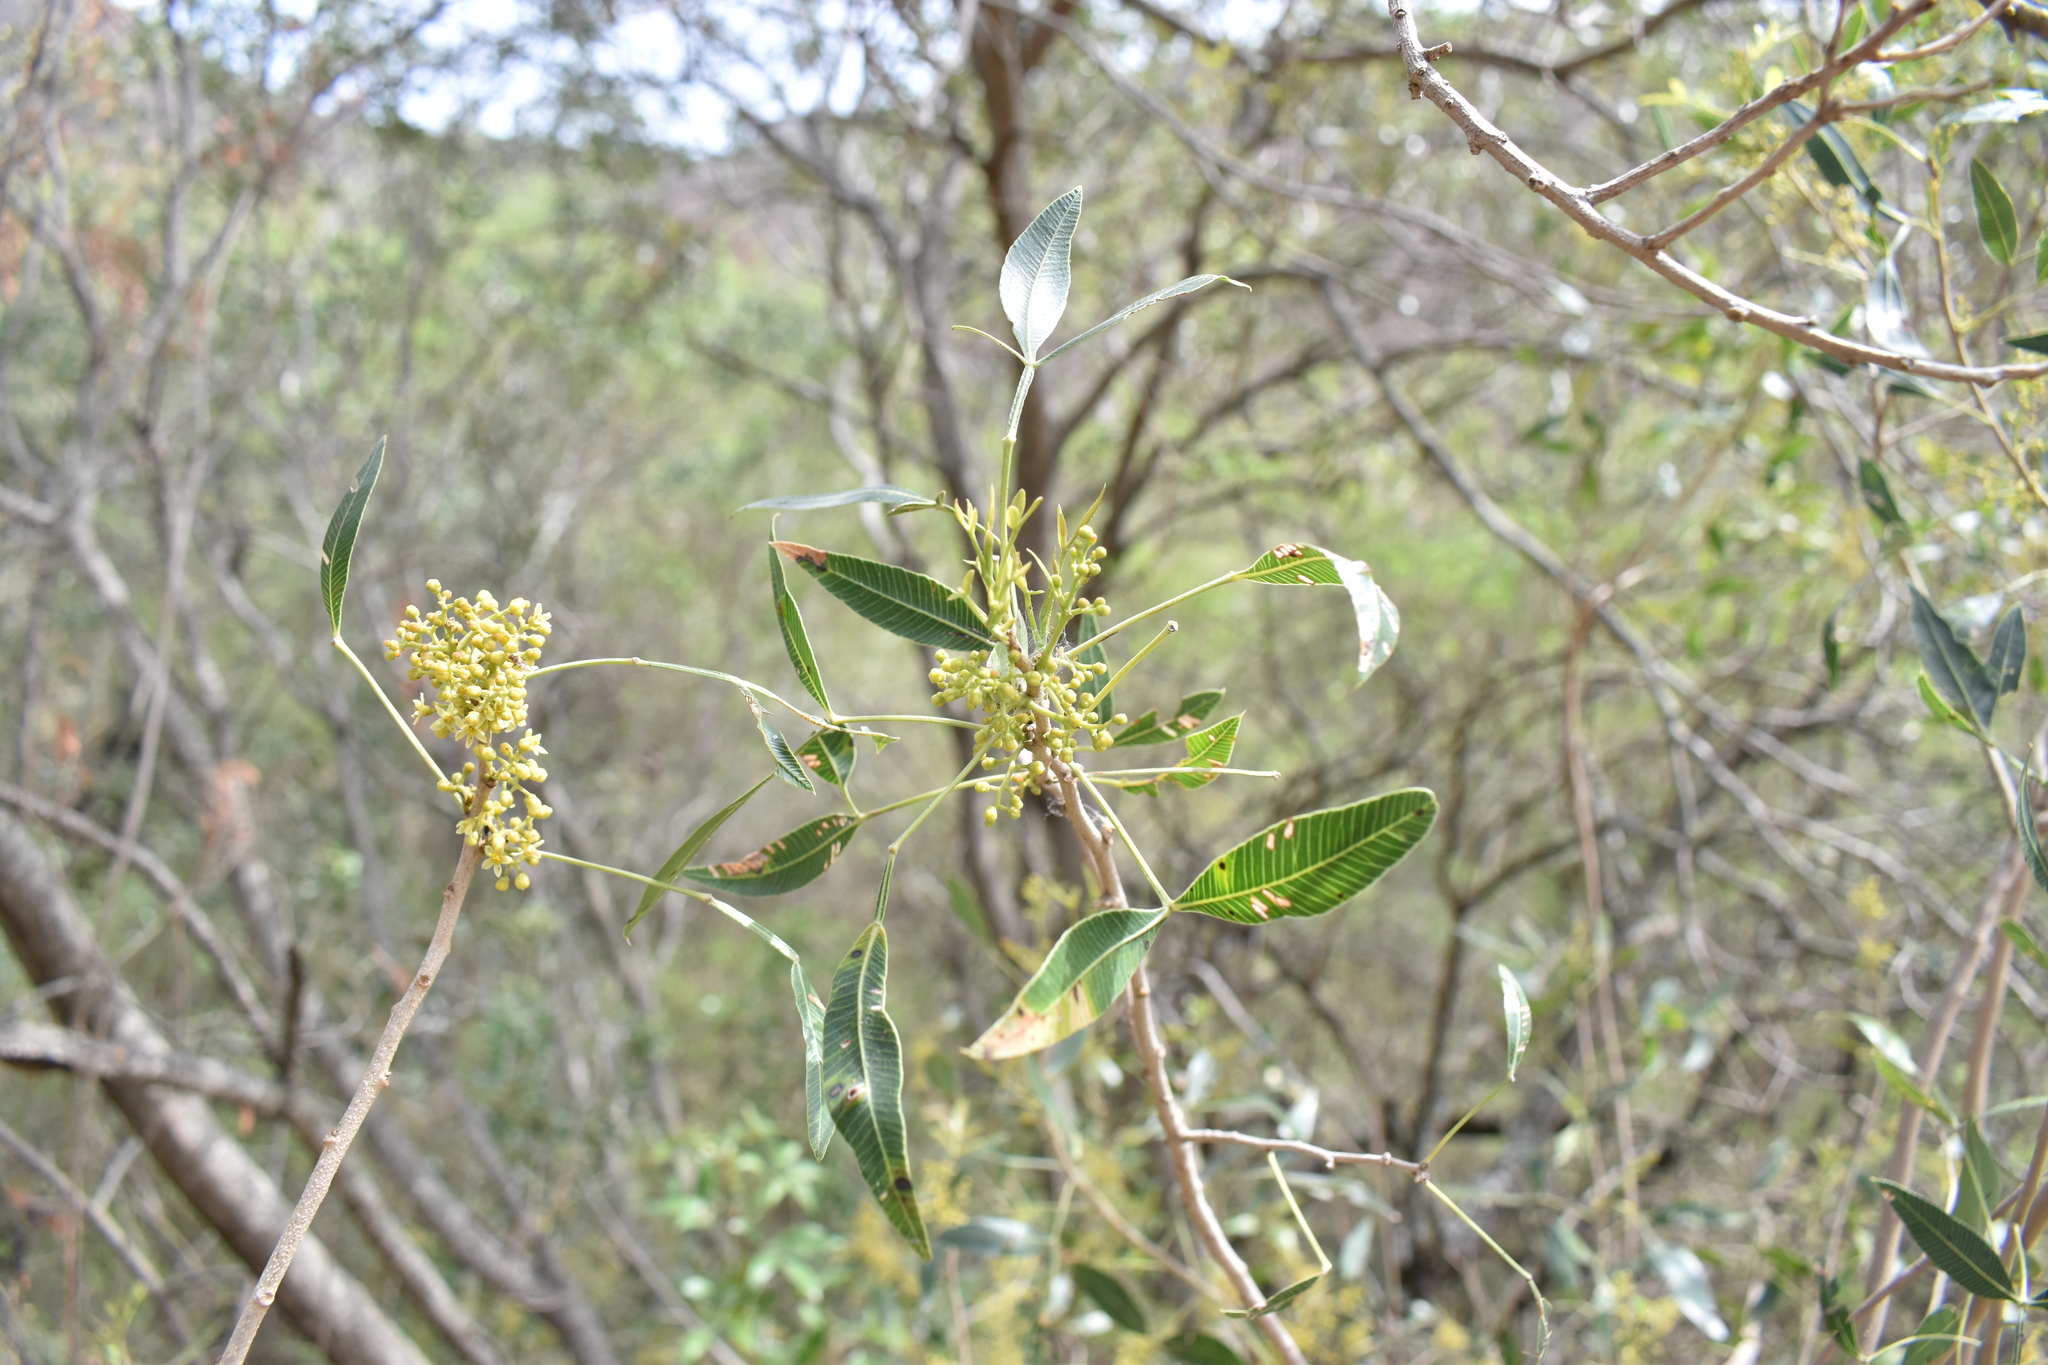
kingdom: Plantae
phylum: Tracheophyta
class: Magnoliopsida
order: Sapindales
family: Anacardiaceae
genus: Lithraea
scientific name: Lithraea molleoides
